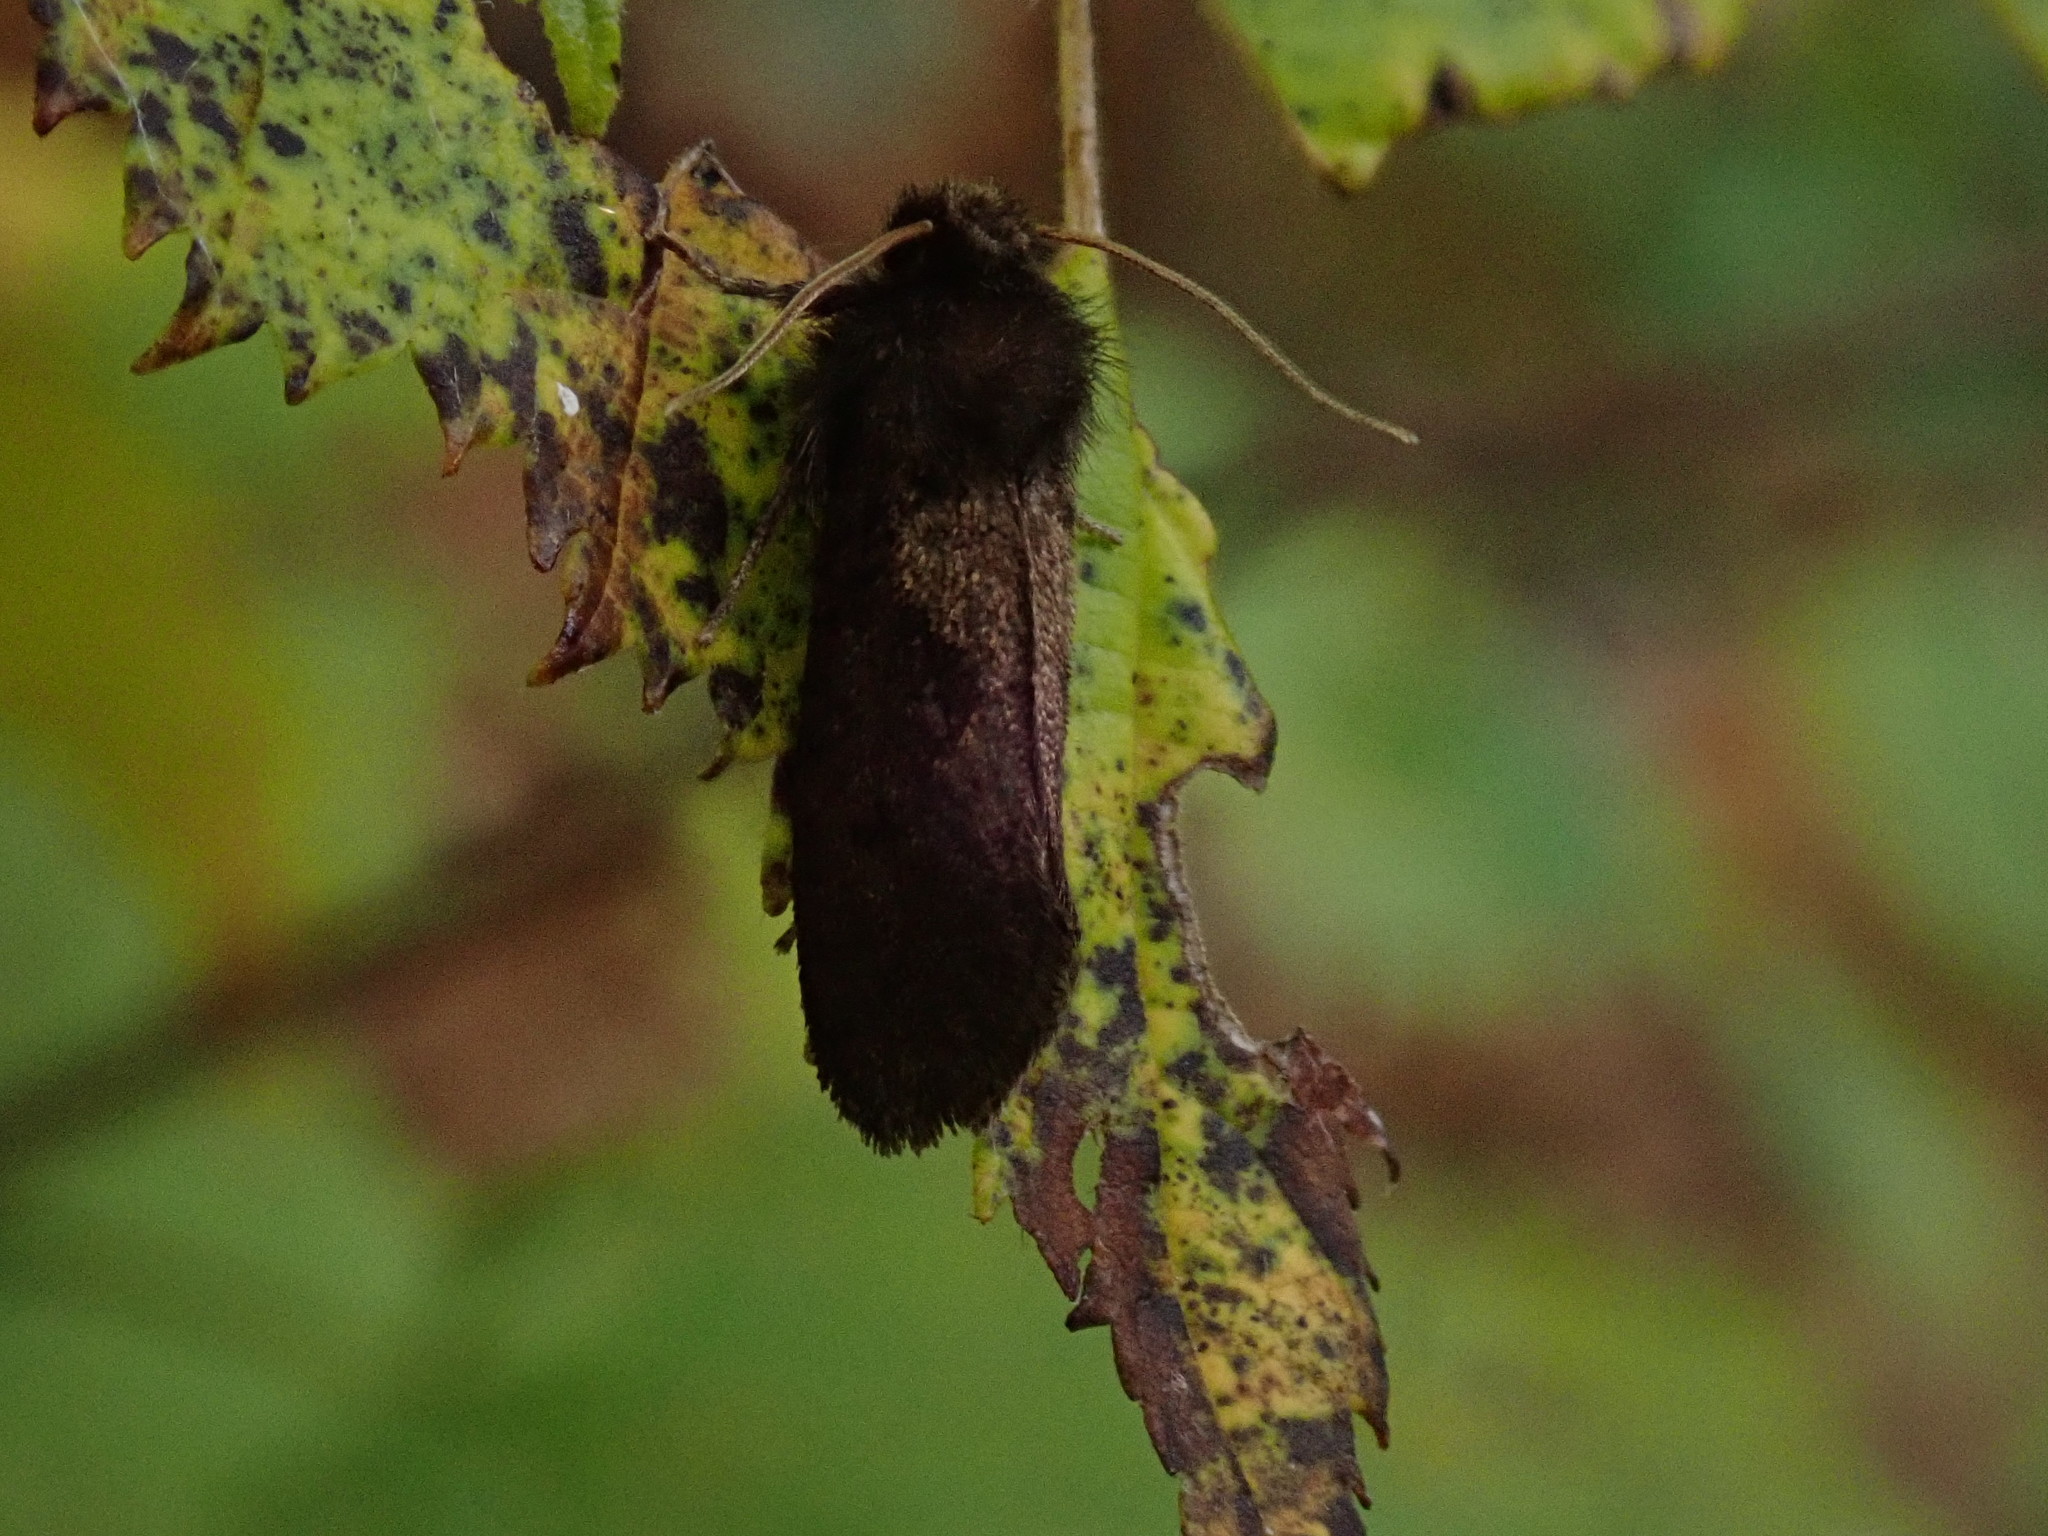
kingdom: Animalia
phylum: Arthropoda
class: Insecta
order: Lepidoptera
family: Tineidae
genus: Acrolophus
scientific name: Acrolophus mora
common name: Dark acrolophus
